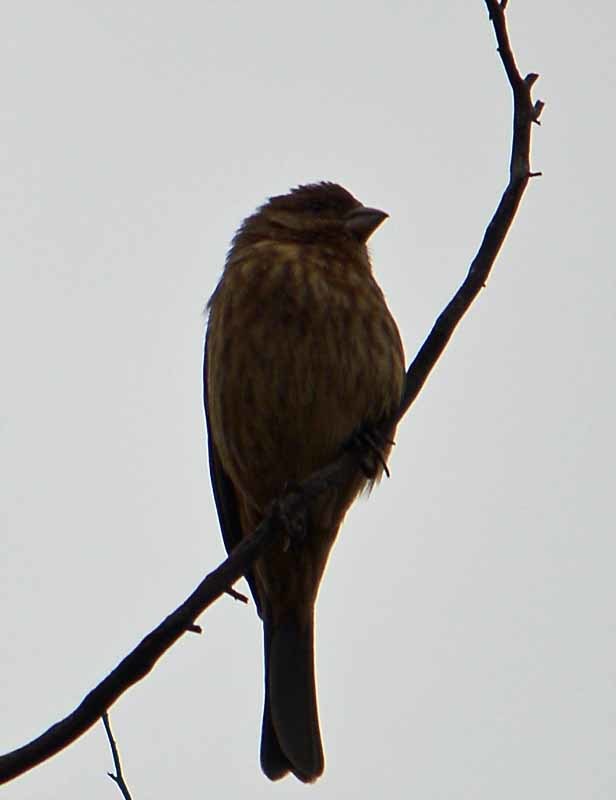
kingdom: Animalia
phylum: Chordata
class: Aves
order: Passeriformes
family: Fringillidae
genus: Haemorhous
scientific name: Haemorhous mexicanus
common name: House finch
